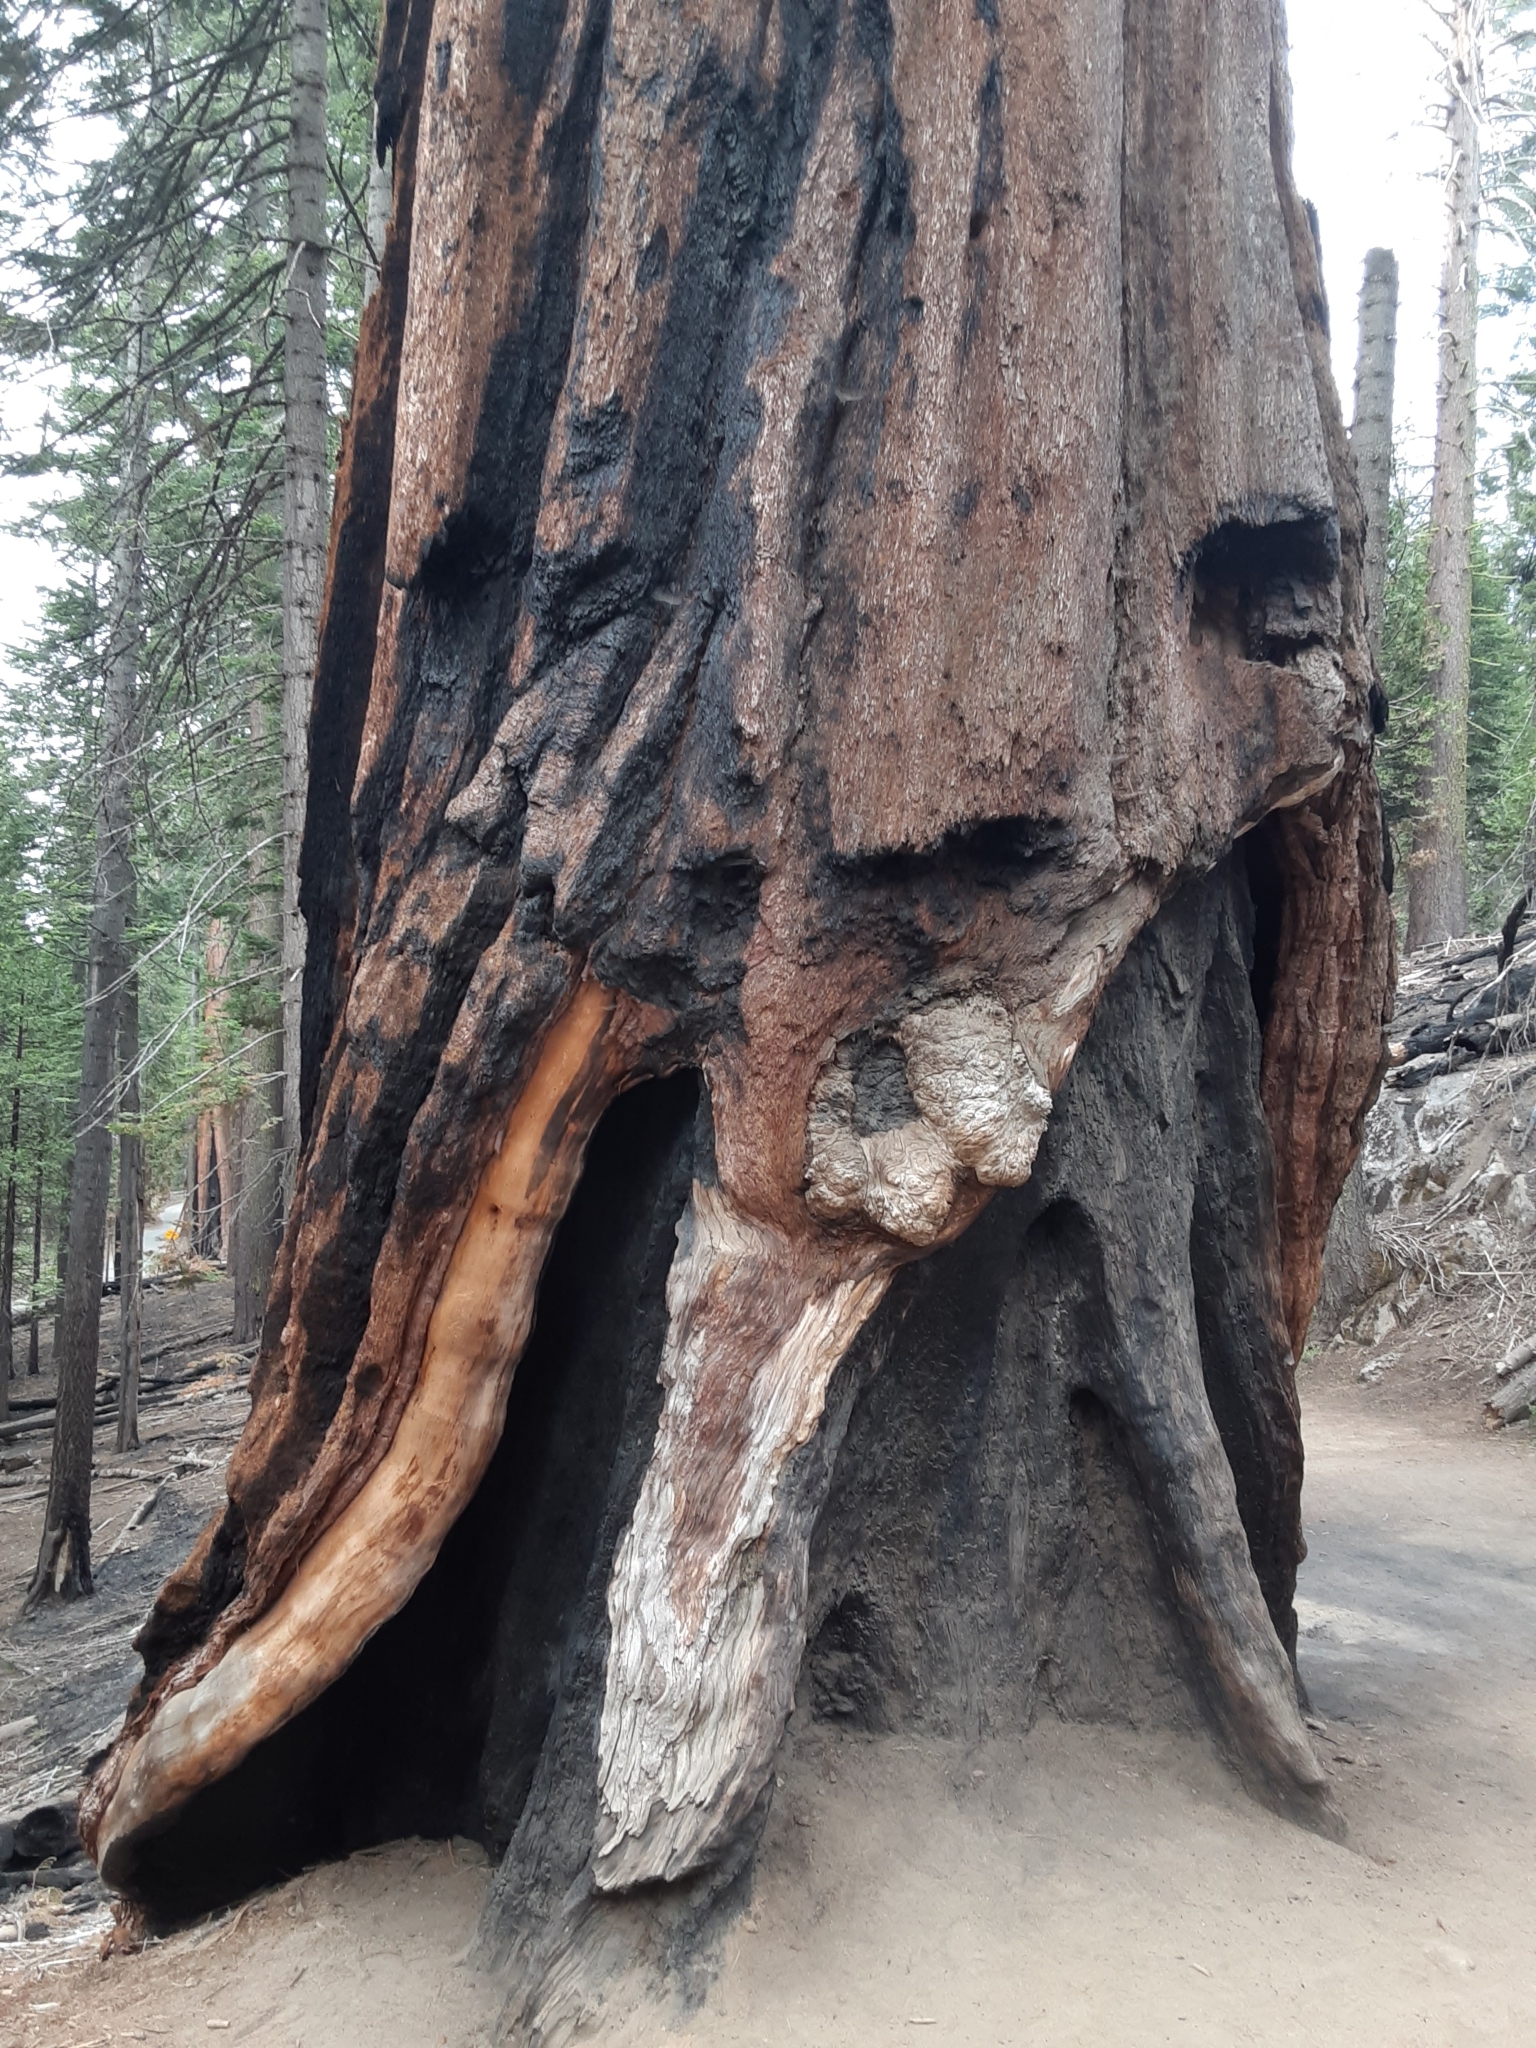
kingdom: Plantae
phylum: Tracheophyta
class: Pinopsida
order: Pinales
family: Cupressaceae
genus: Sequoiadendron
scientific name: Sequoiadendron giganteum
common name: Wellingtonia
